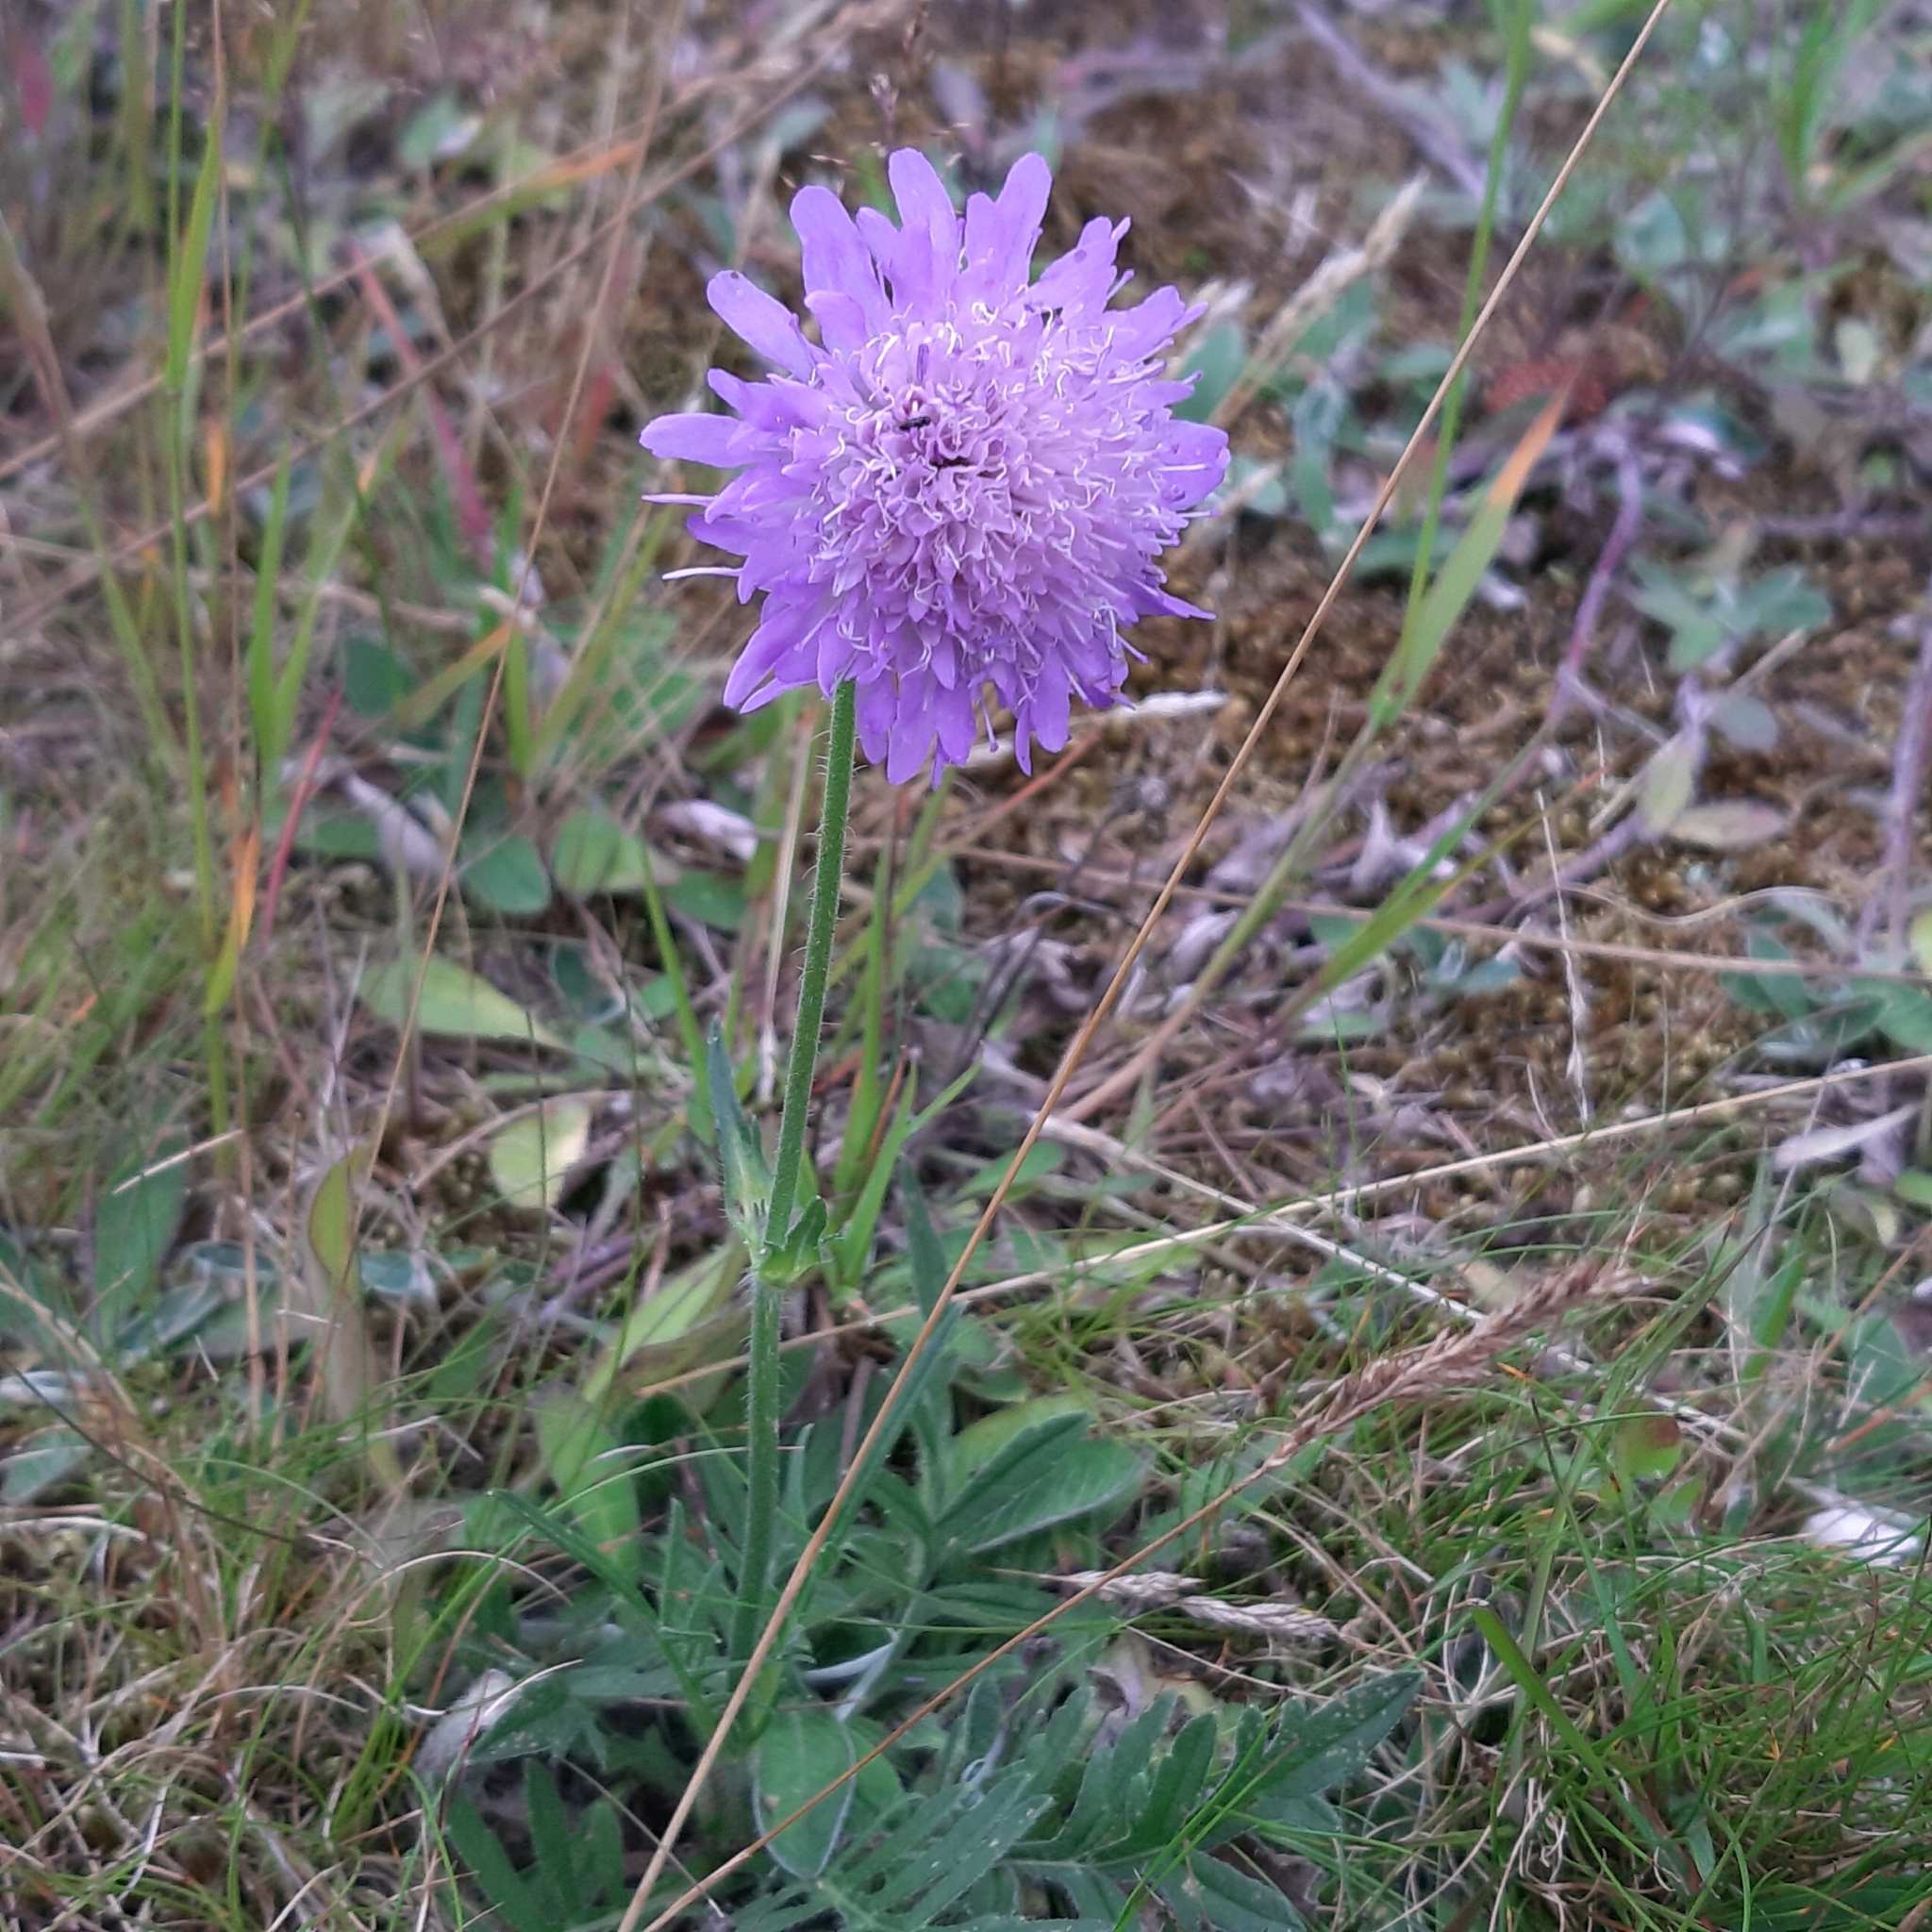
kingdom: Plantae
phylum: Tracheophyta
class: Magnoliopsida
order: Dipsacales
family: Caprifoliaceae
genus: Knautia
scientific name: Knautia arvensis
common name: Field scabiosa
